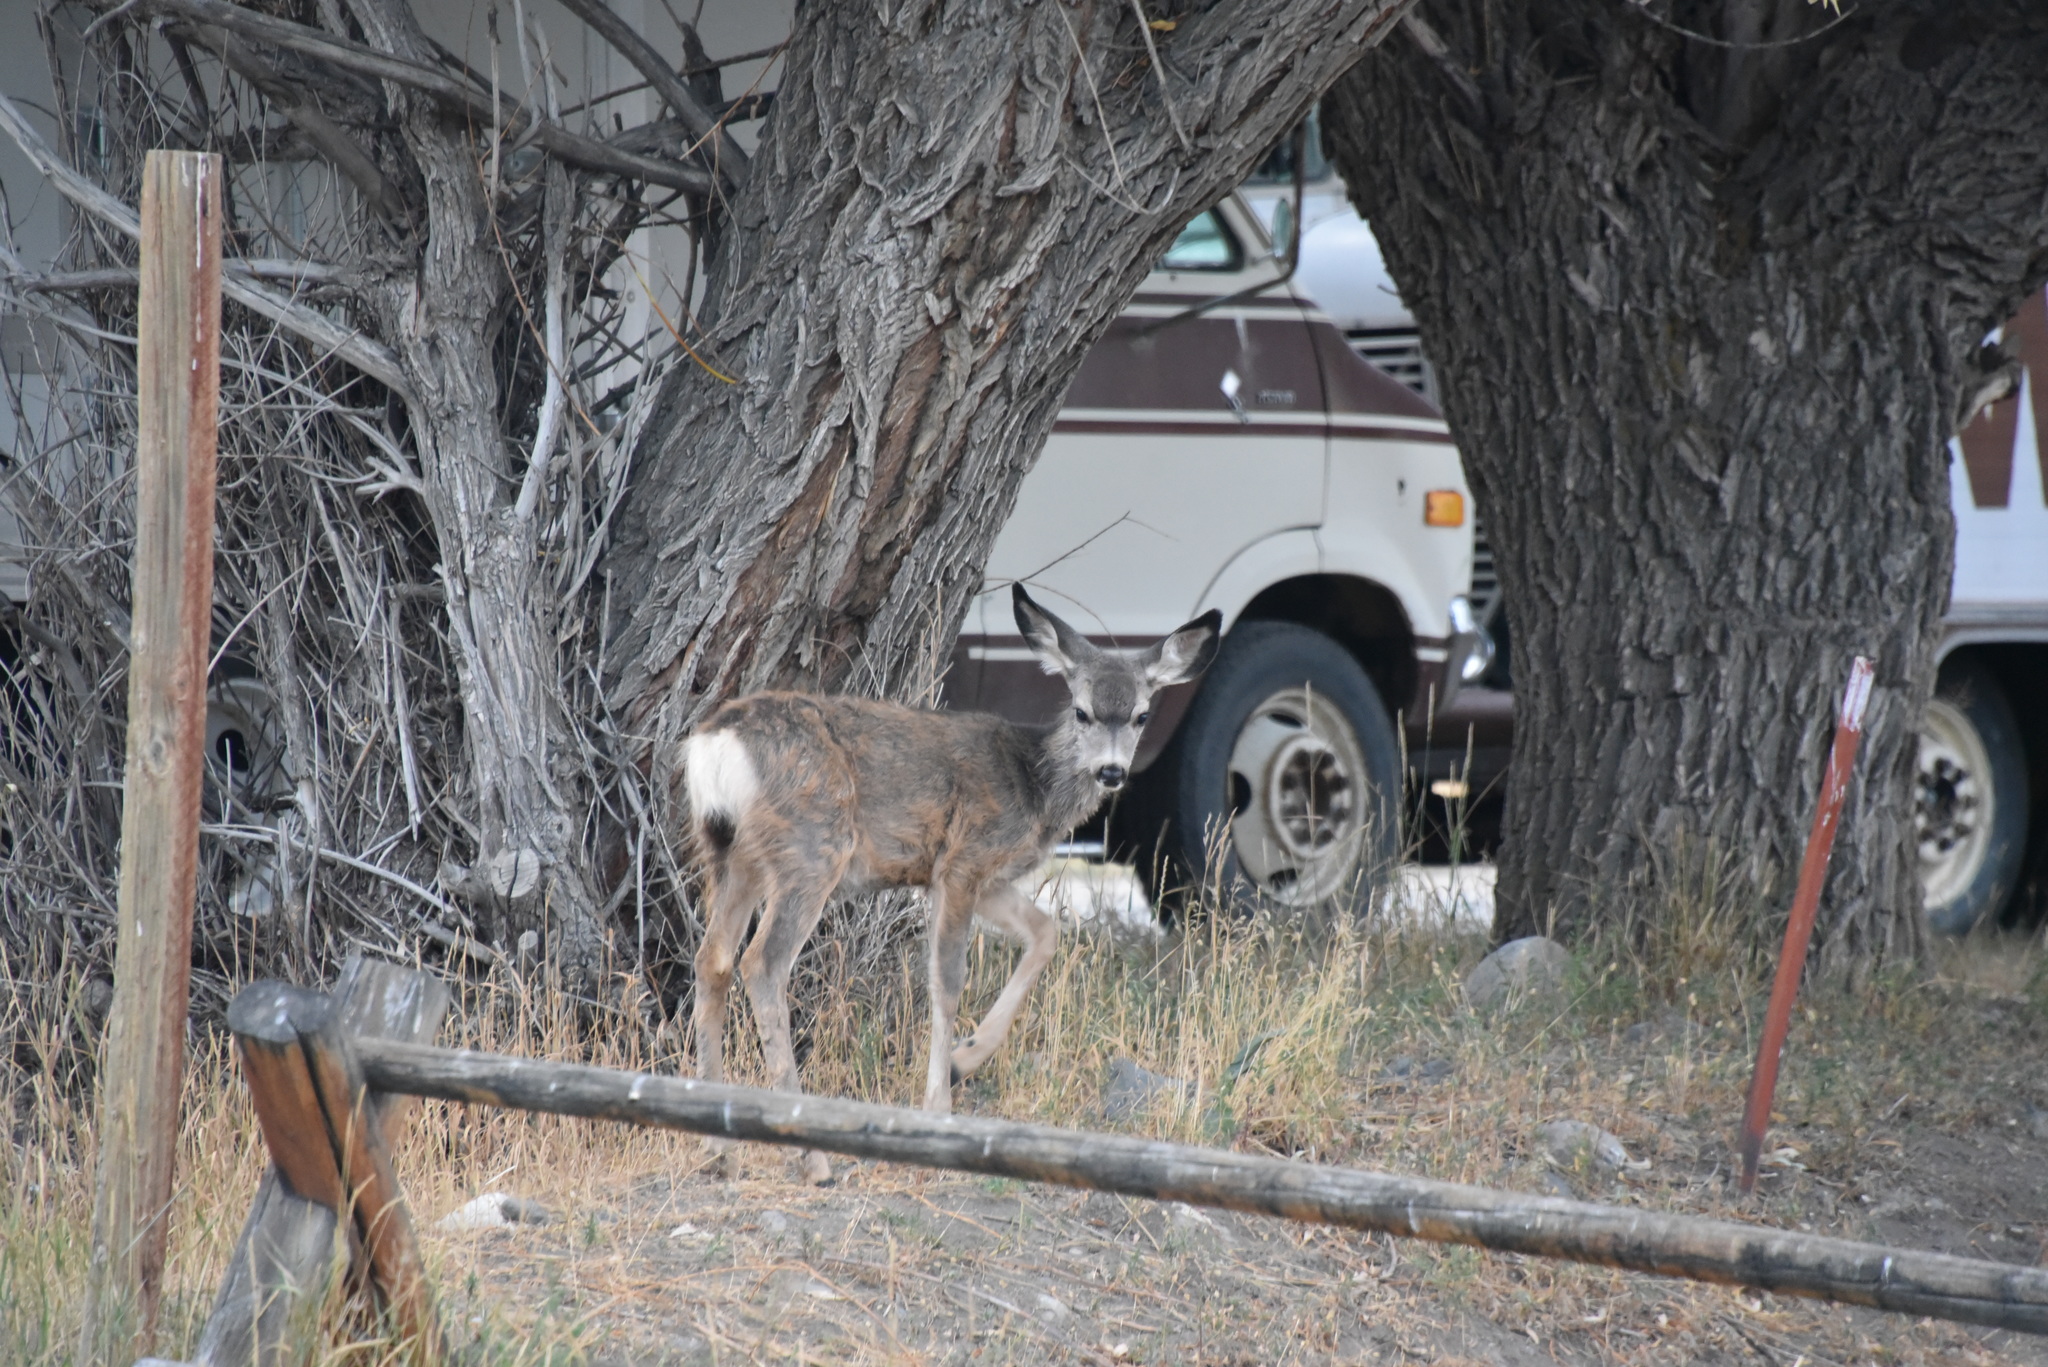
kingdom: Animalia
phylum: Chordata
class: Mammalia
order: Artiodactyla
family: Cervidae
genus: Odocoileus
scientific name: Odocoileus hemionus
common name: Mule deer
